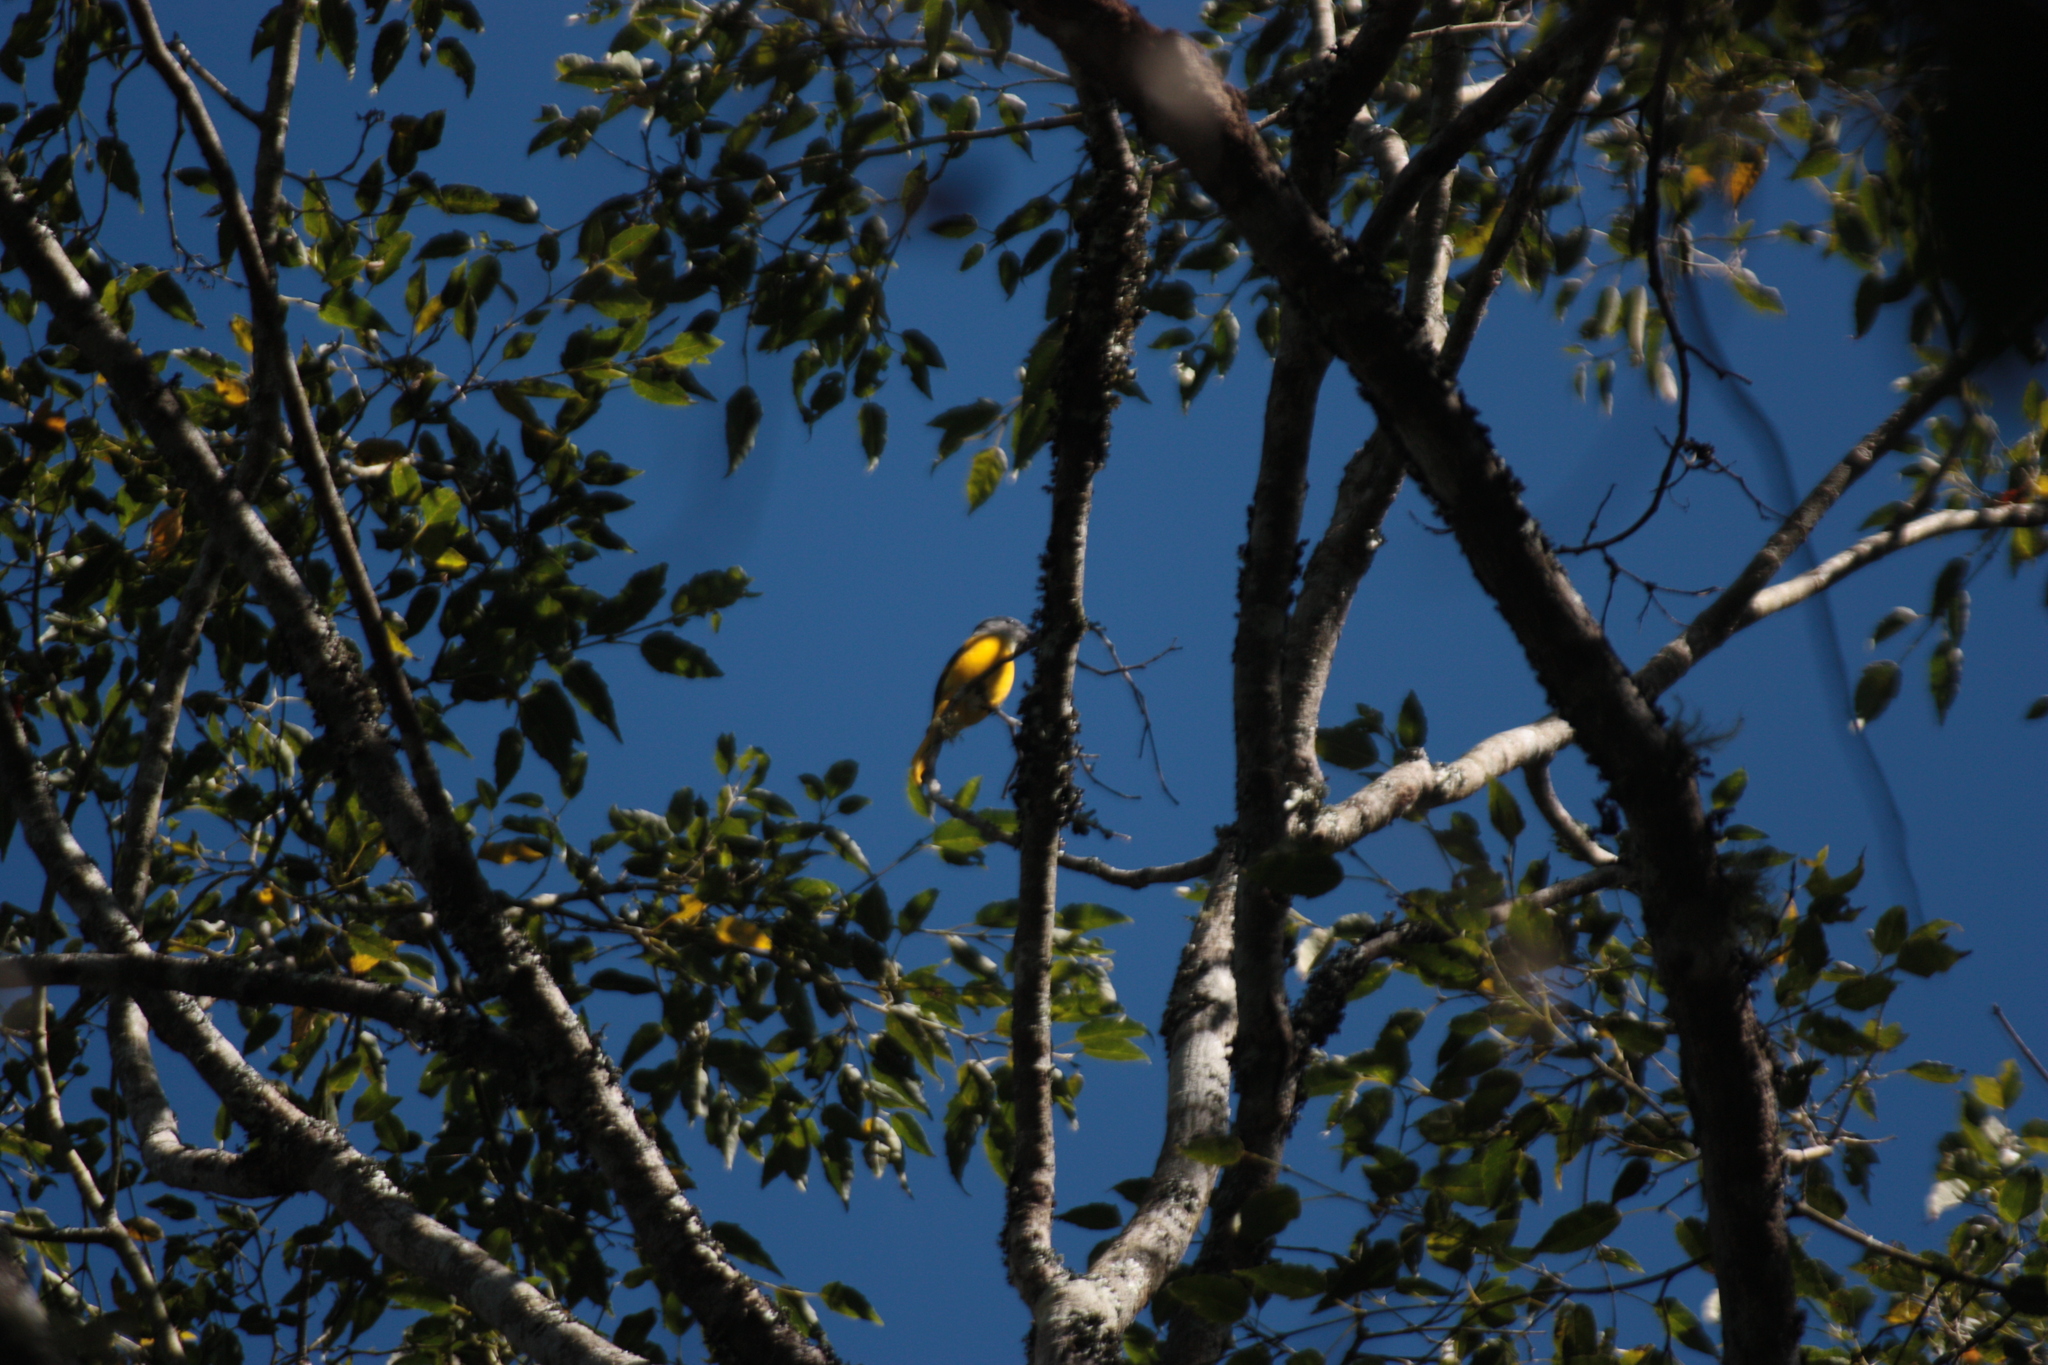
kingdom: Animalia
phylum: Chordata
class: Aves
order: Passeriformes
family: Campephagidae
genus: Pericrocotus
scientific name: Pericrocotus solaris
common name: Grey-chinned minivet
